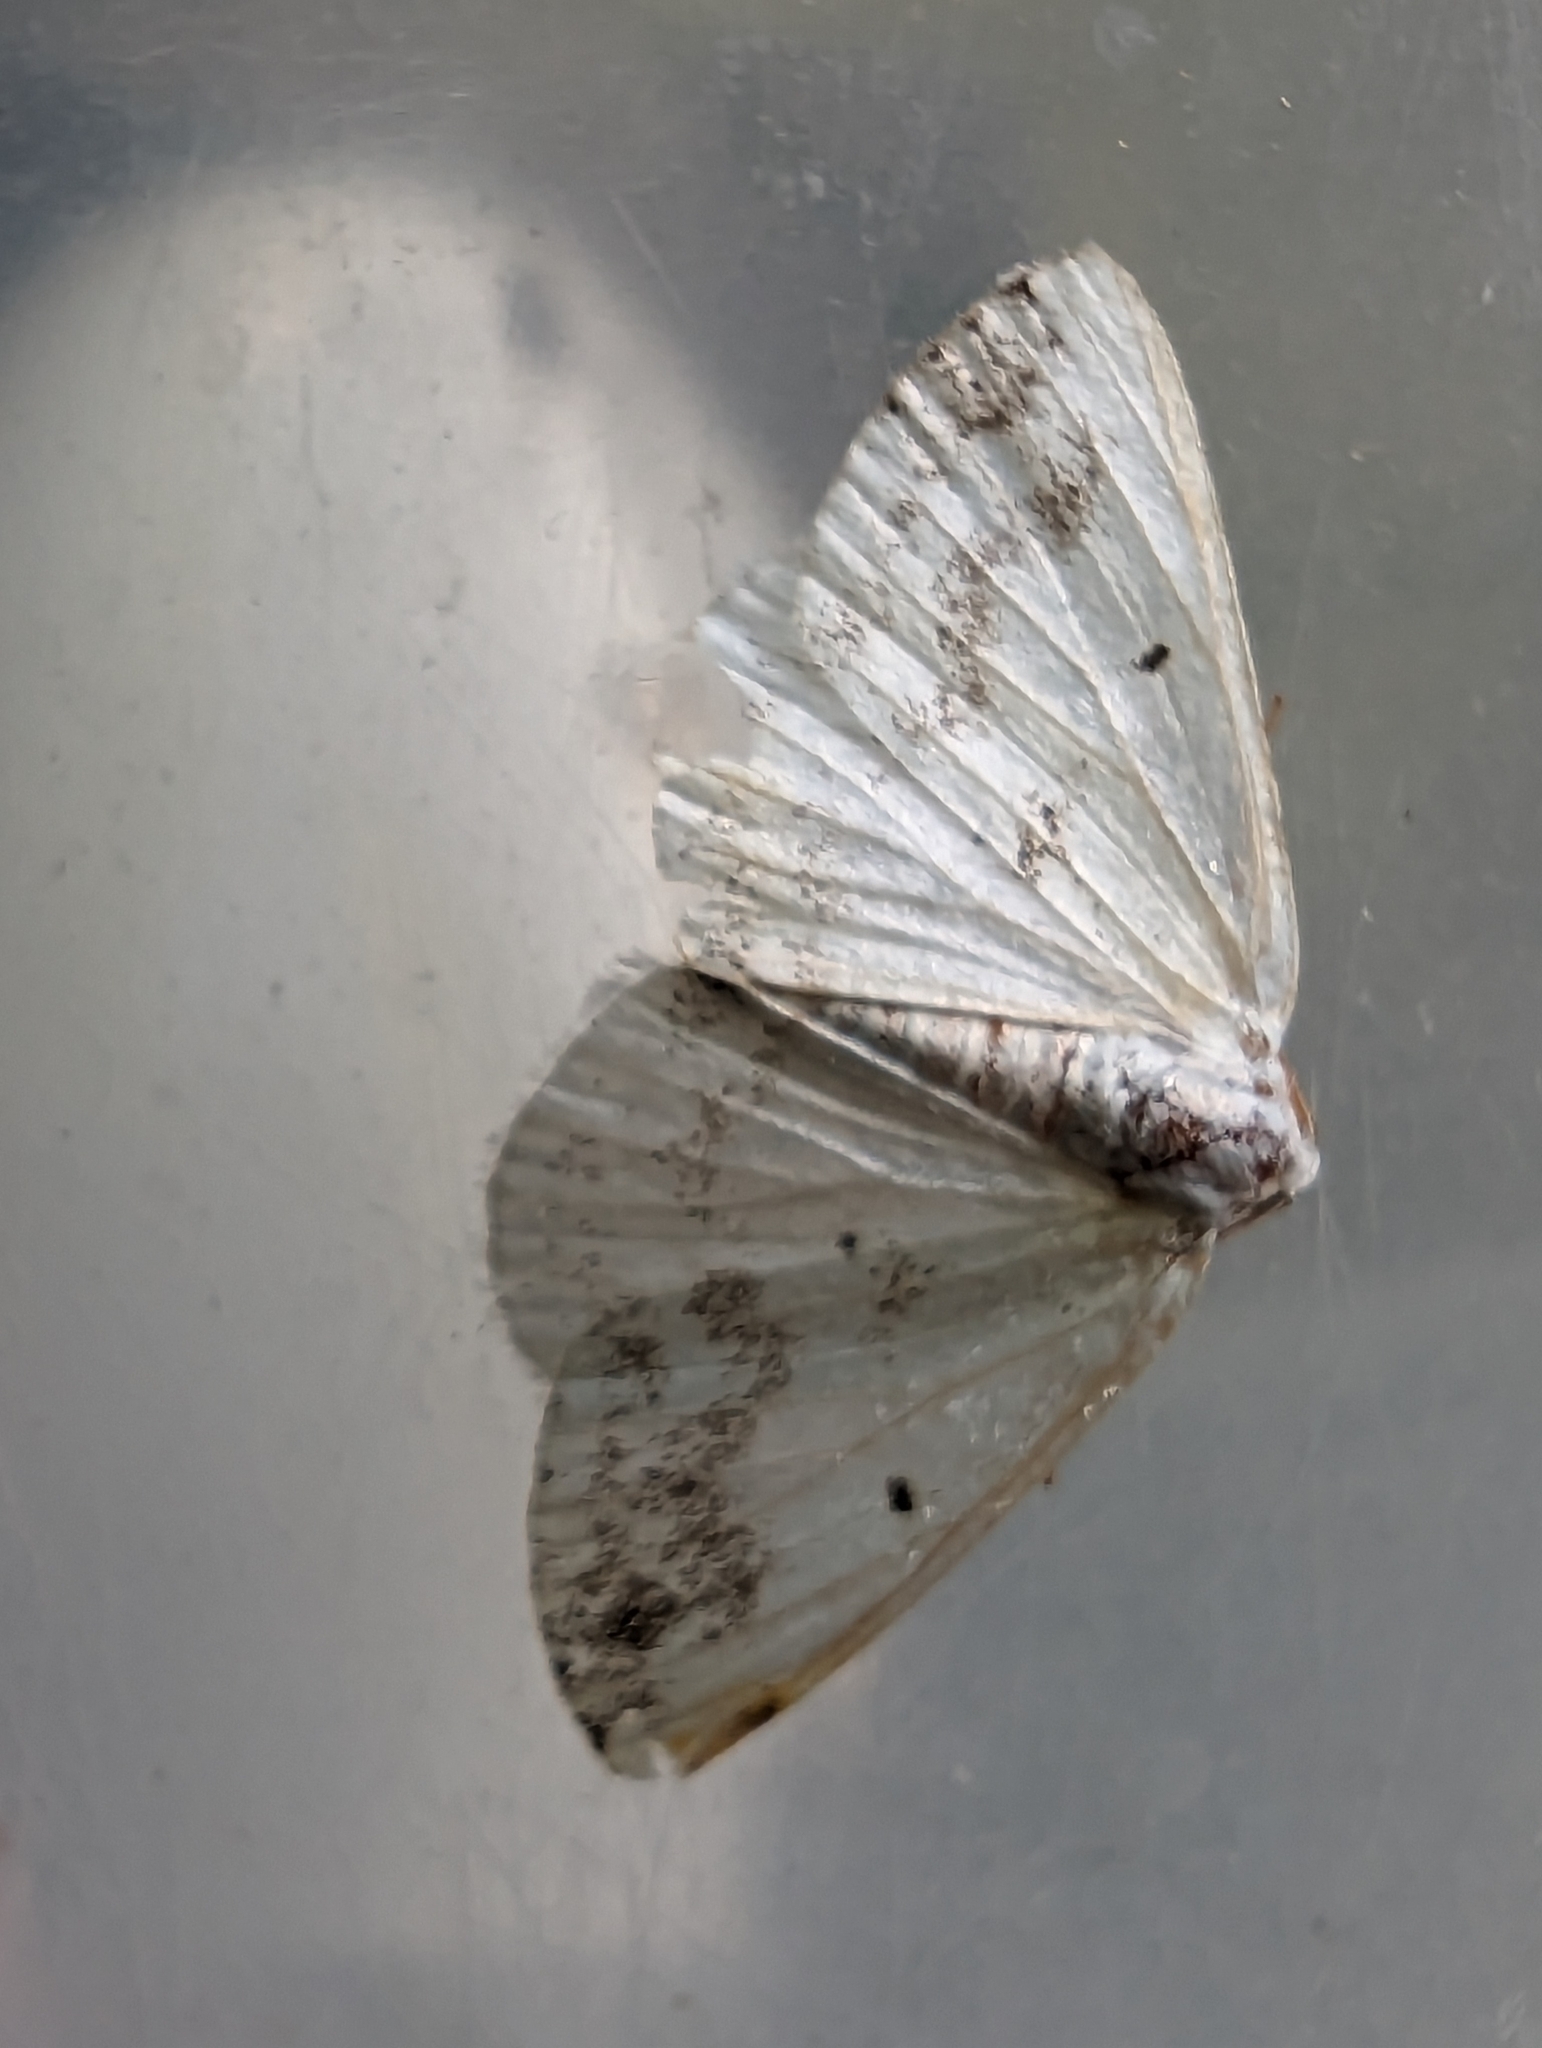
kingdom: Animalia
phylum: Arthropoda
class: Insecta
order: Lepidoptera
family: Geometridae
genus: Lomographa
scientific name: Lomographa temerata
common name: Clouded silver
